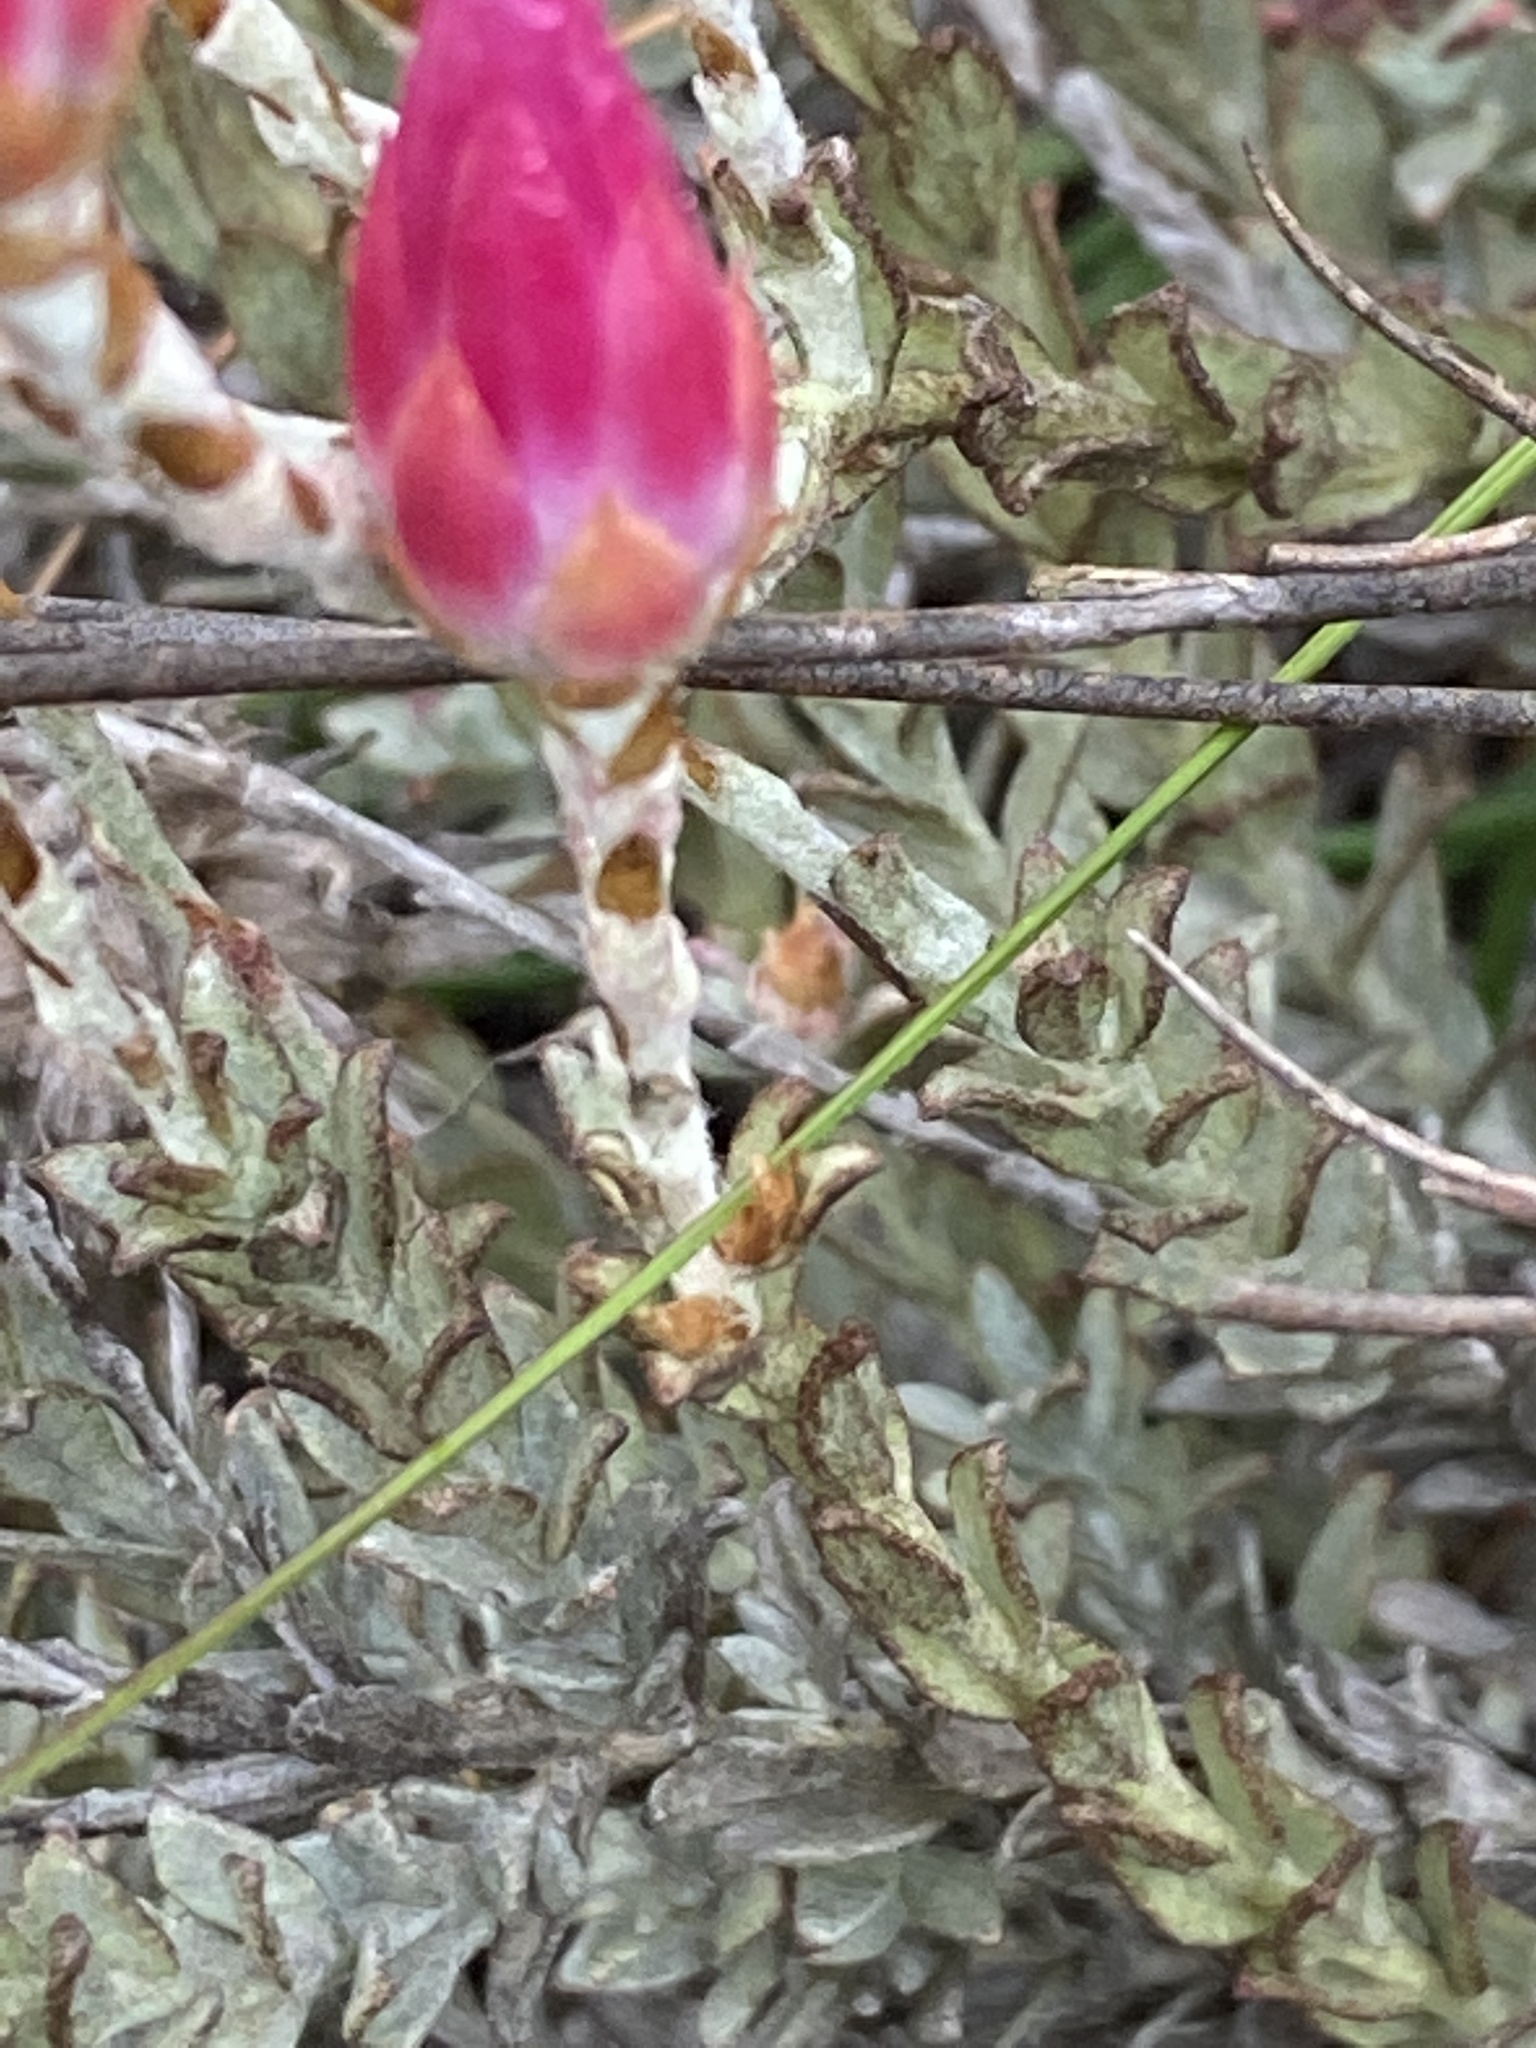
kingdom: Plantae
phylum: Tracheophyta
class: Magnoliopsida
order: Asterales
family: Asteraceae
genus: Syncarpha
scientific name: Syncarpha canescens
